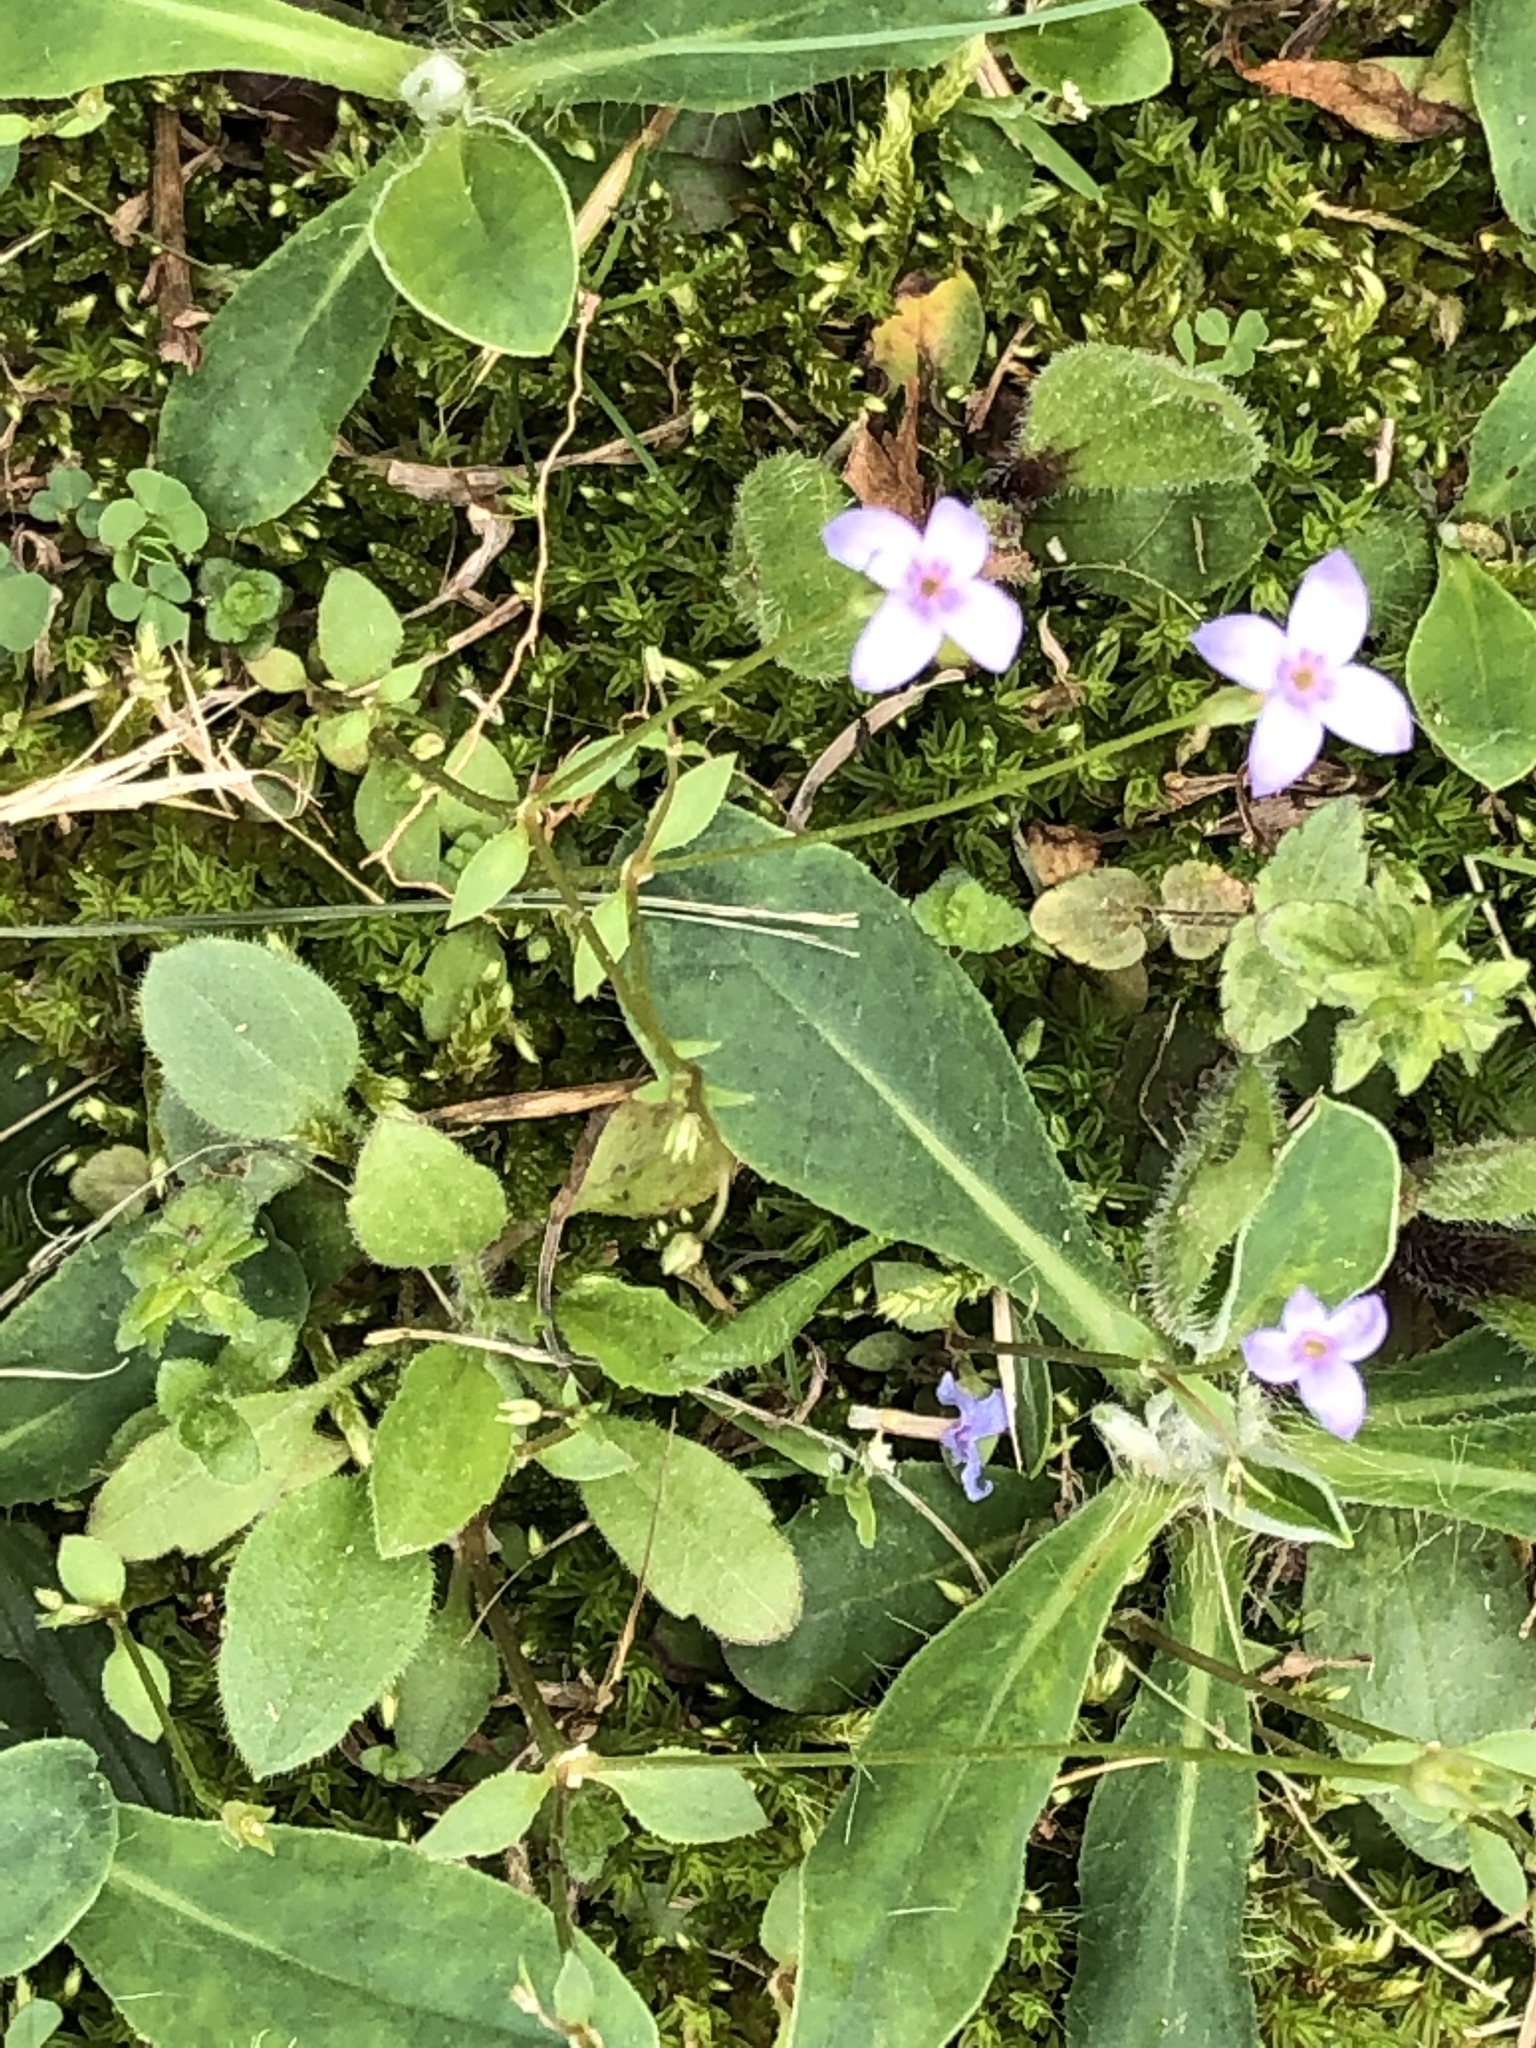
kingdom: Plantae
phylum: Tracheophyta
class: Magnoliopsida
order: Gentianales
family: Rubiaceae
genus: Houstonia
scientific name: Houstonia pusilla
